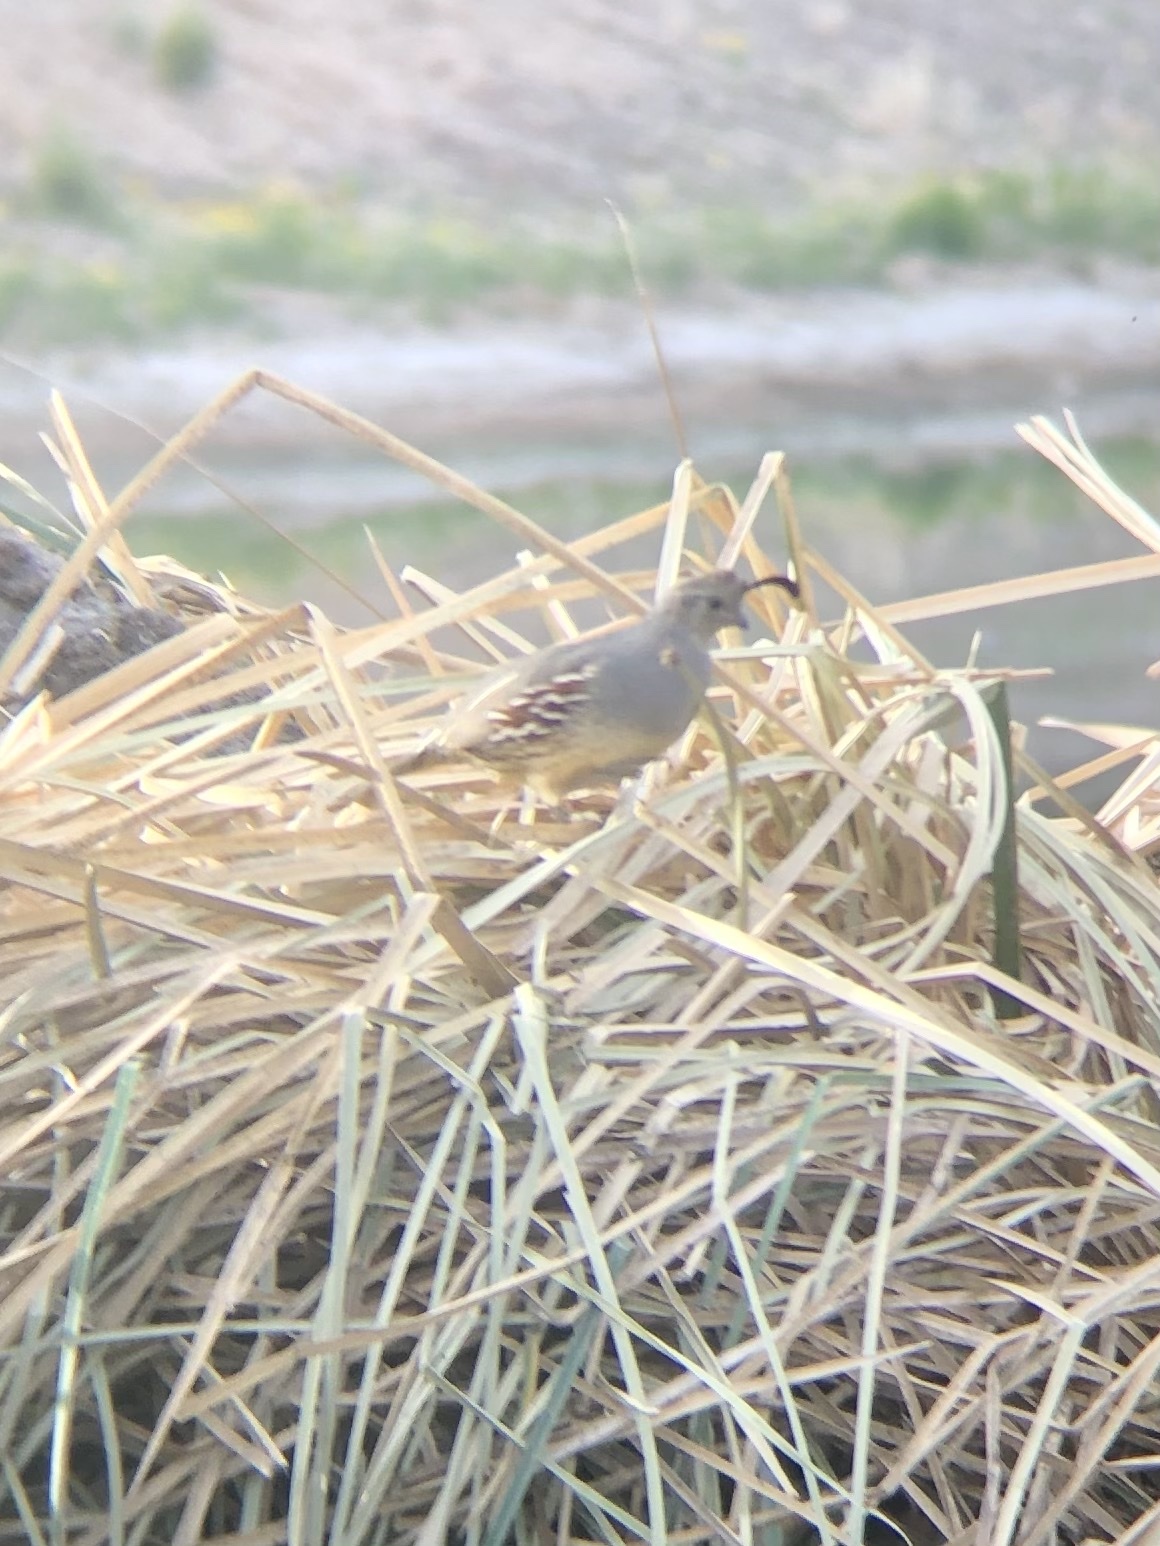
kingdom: Animalia
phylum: Chordata
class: Aves
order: Galliformes
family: Odontophoridae
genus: Callipepla
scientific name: Callipepla gambelii
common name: Gambel's quail
